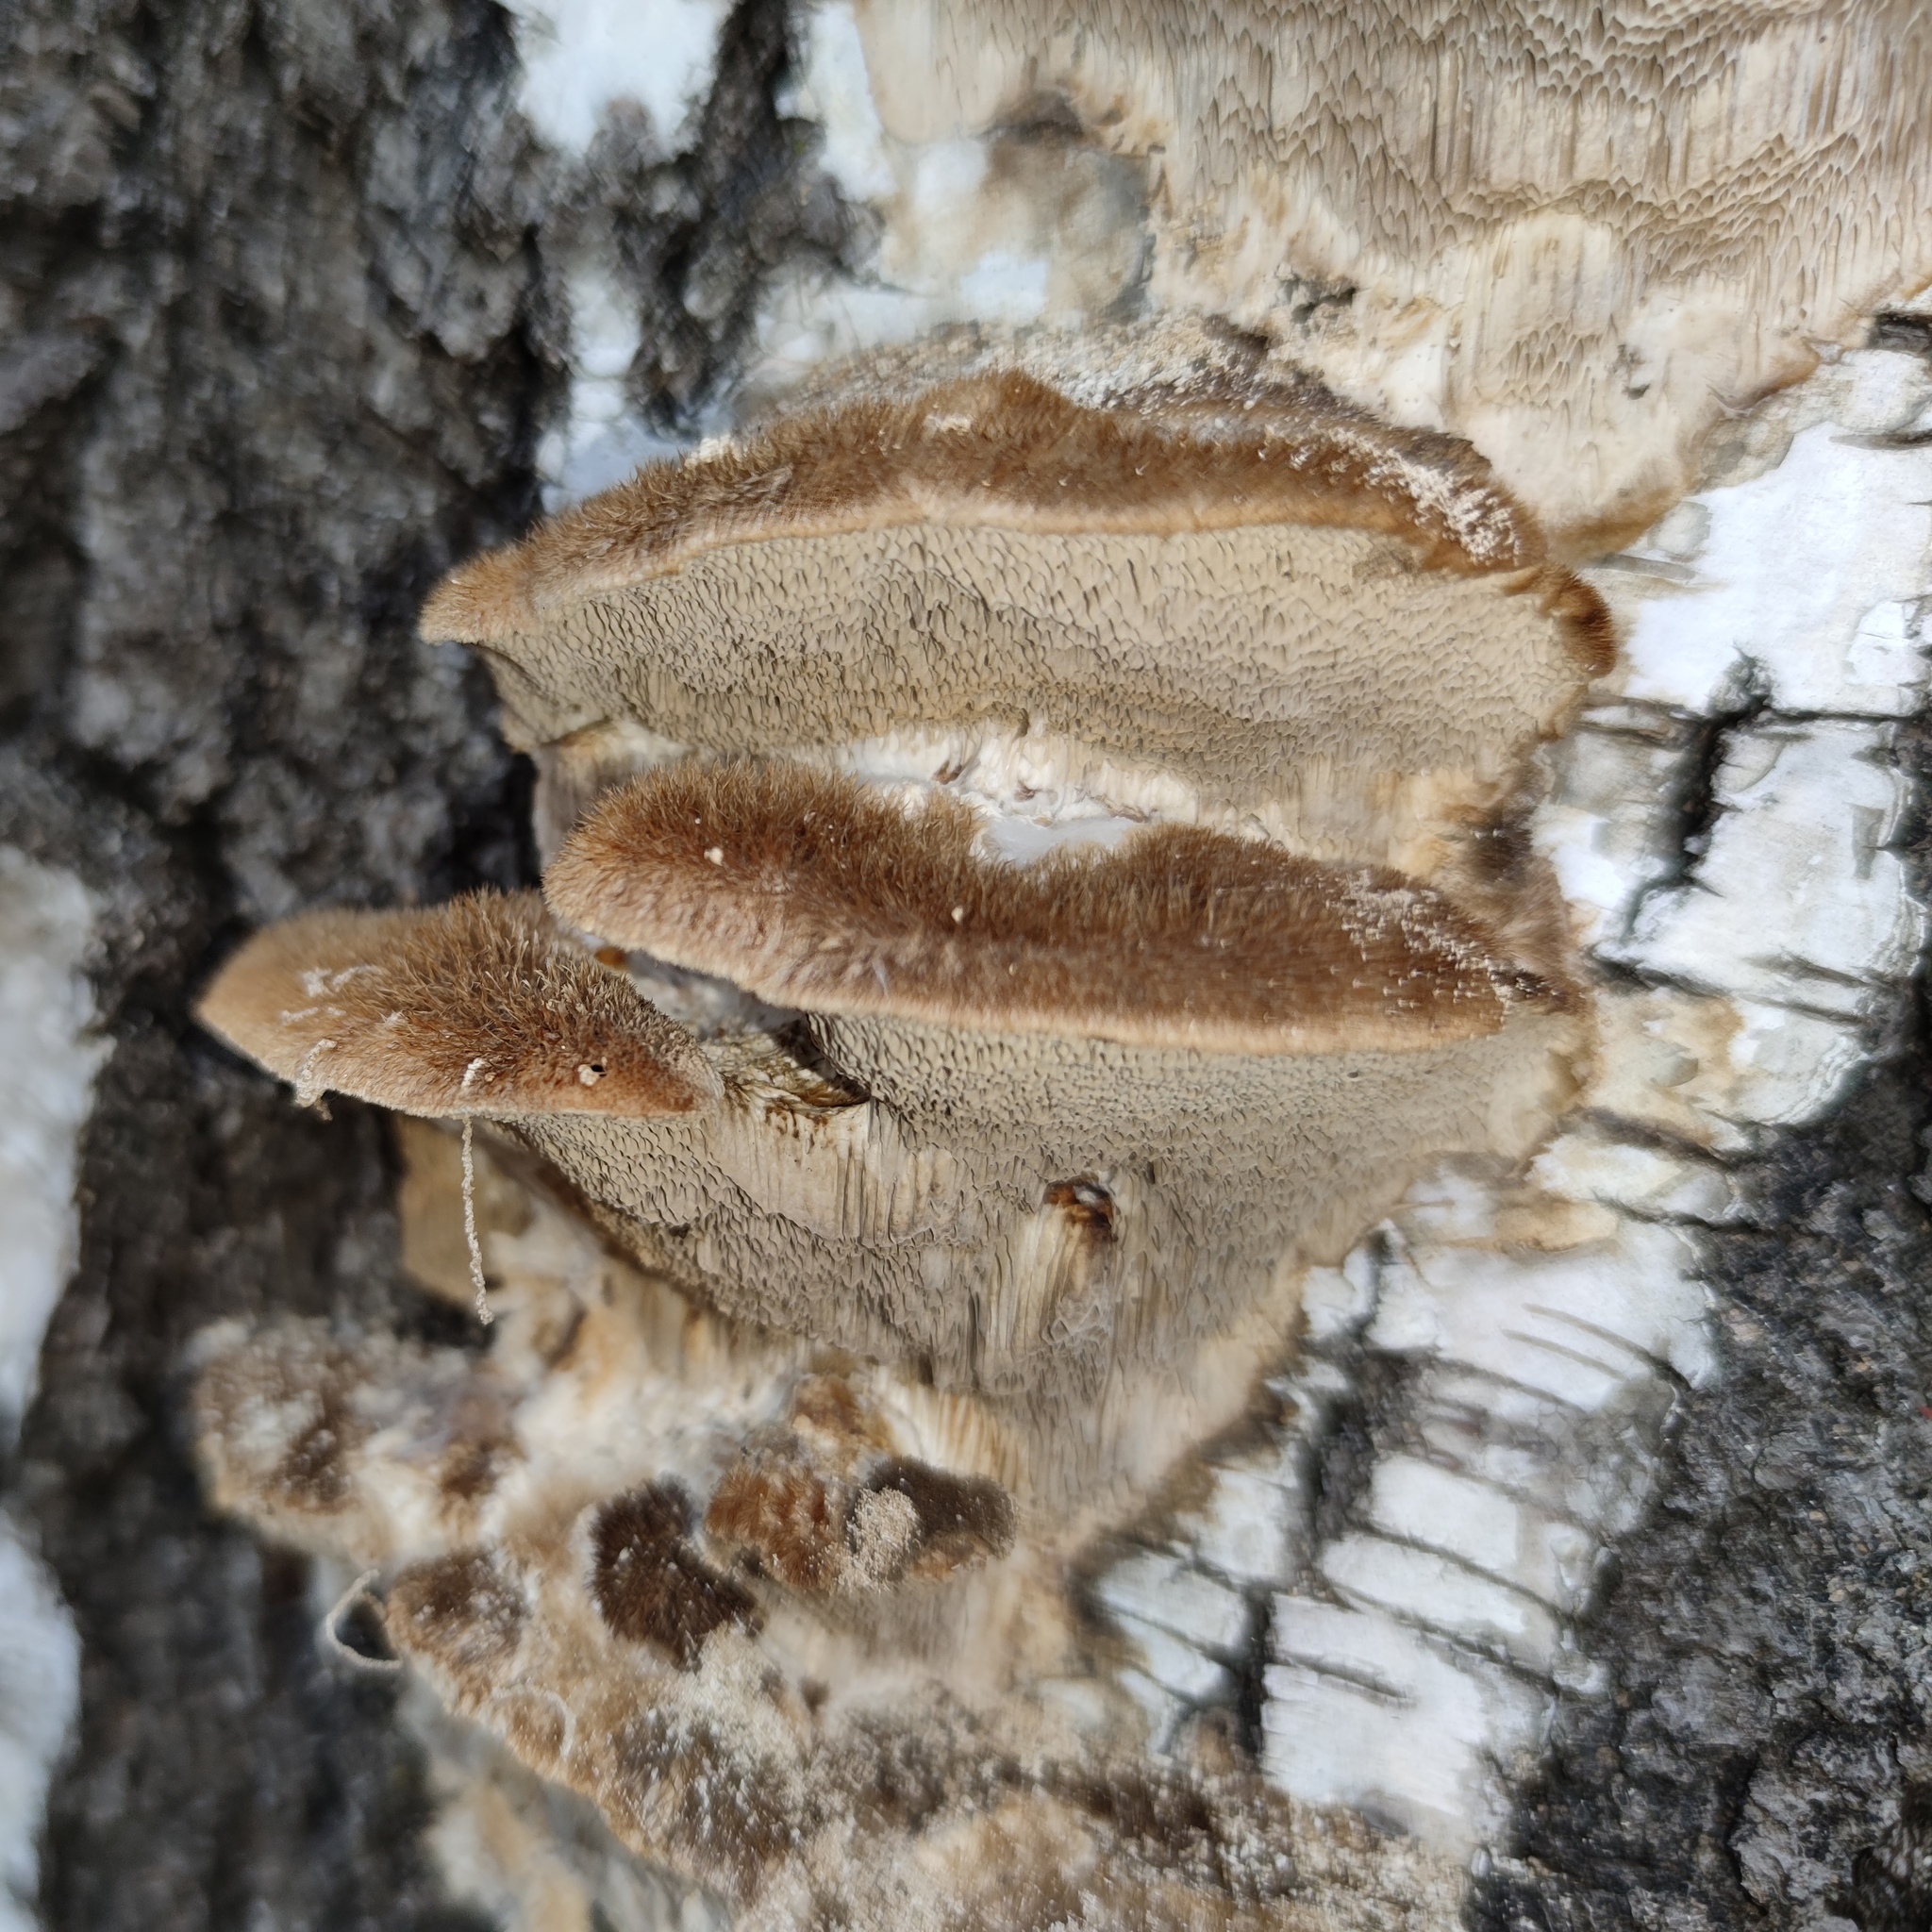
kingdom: Fungi
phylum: Basidiomycota
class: Agaricomycetes
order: Polyporales
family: Polyporaceae
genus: Trametes
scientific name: Trametes trogii
